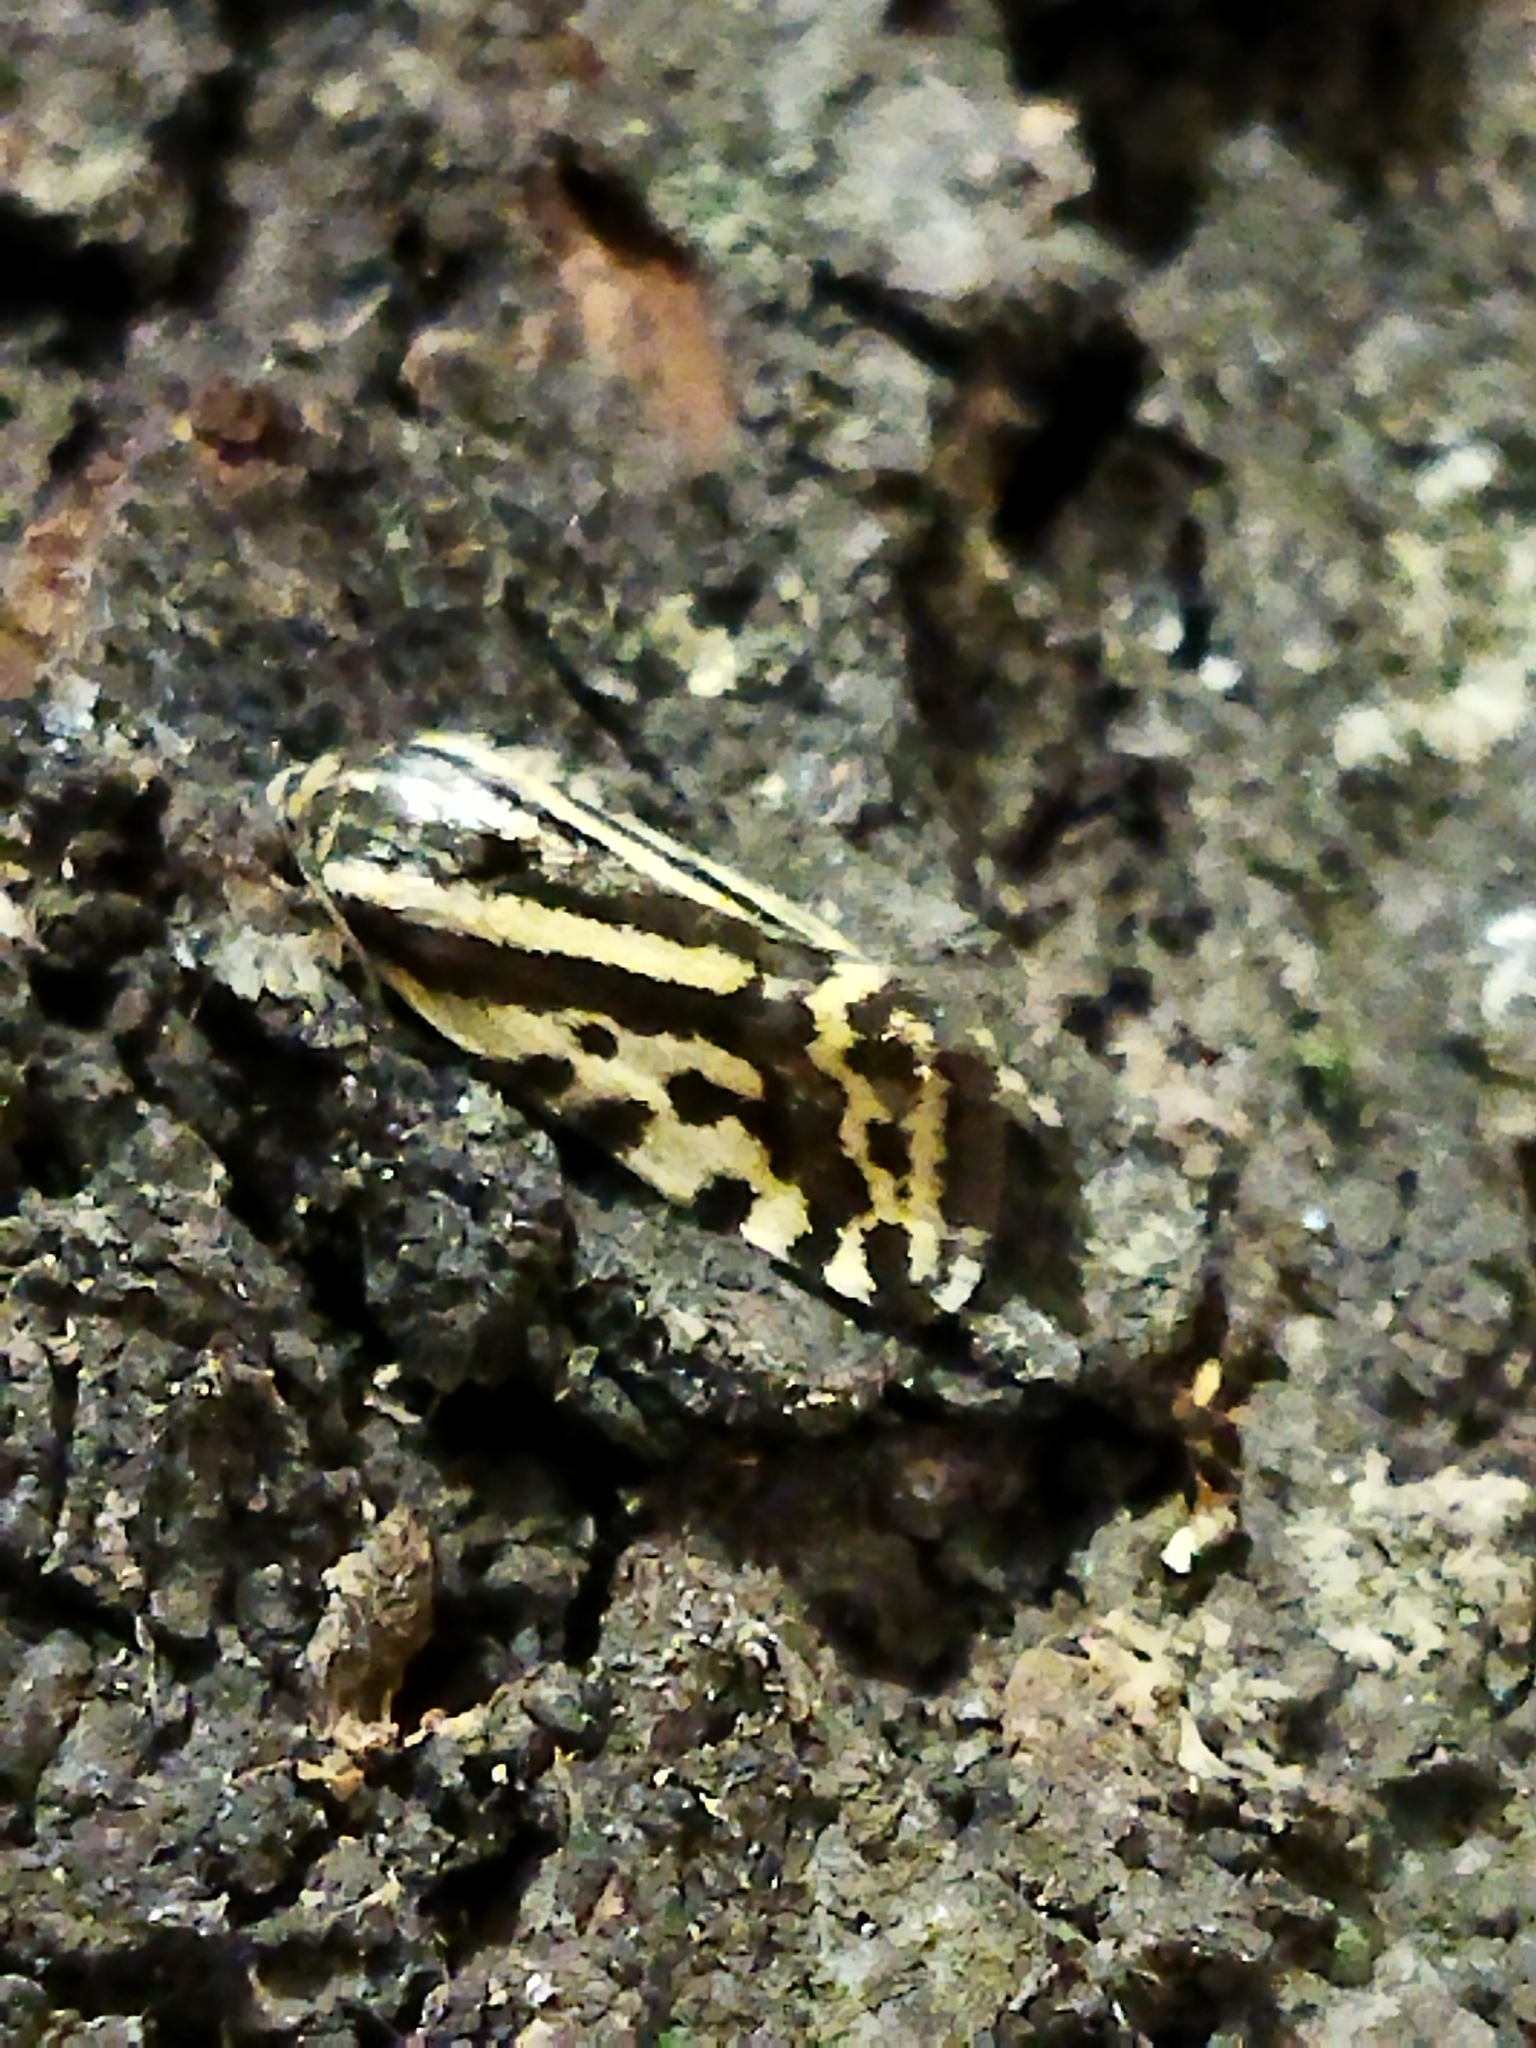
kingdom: Animalia
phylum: Arthropoda
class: Insecta
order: Lepidoptera
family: Noctuidae
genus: Acontia
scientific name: Acontia trabealis
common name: Spotted sulphur
